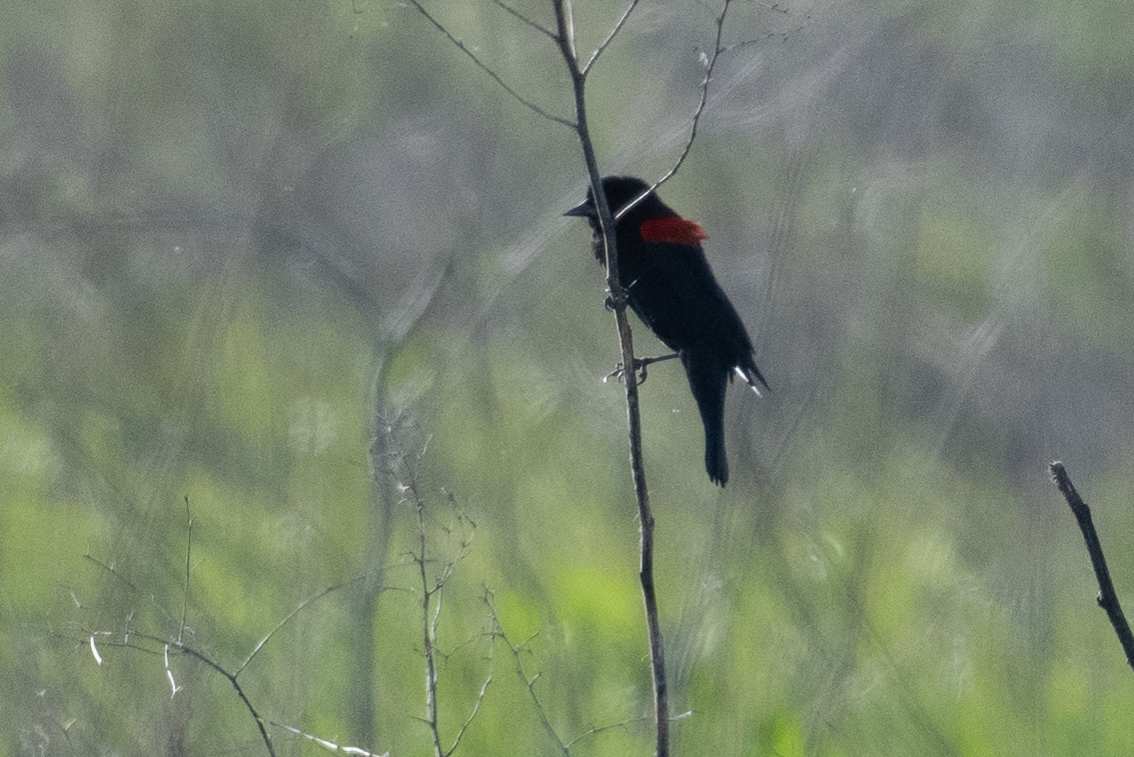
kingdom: Animalia
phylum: Chordata
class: Aves
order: Passeriformes
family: Icteridae
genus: Agelaius
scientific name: Agelaius phoeniceus
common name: Red-winged blackbird
